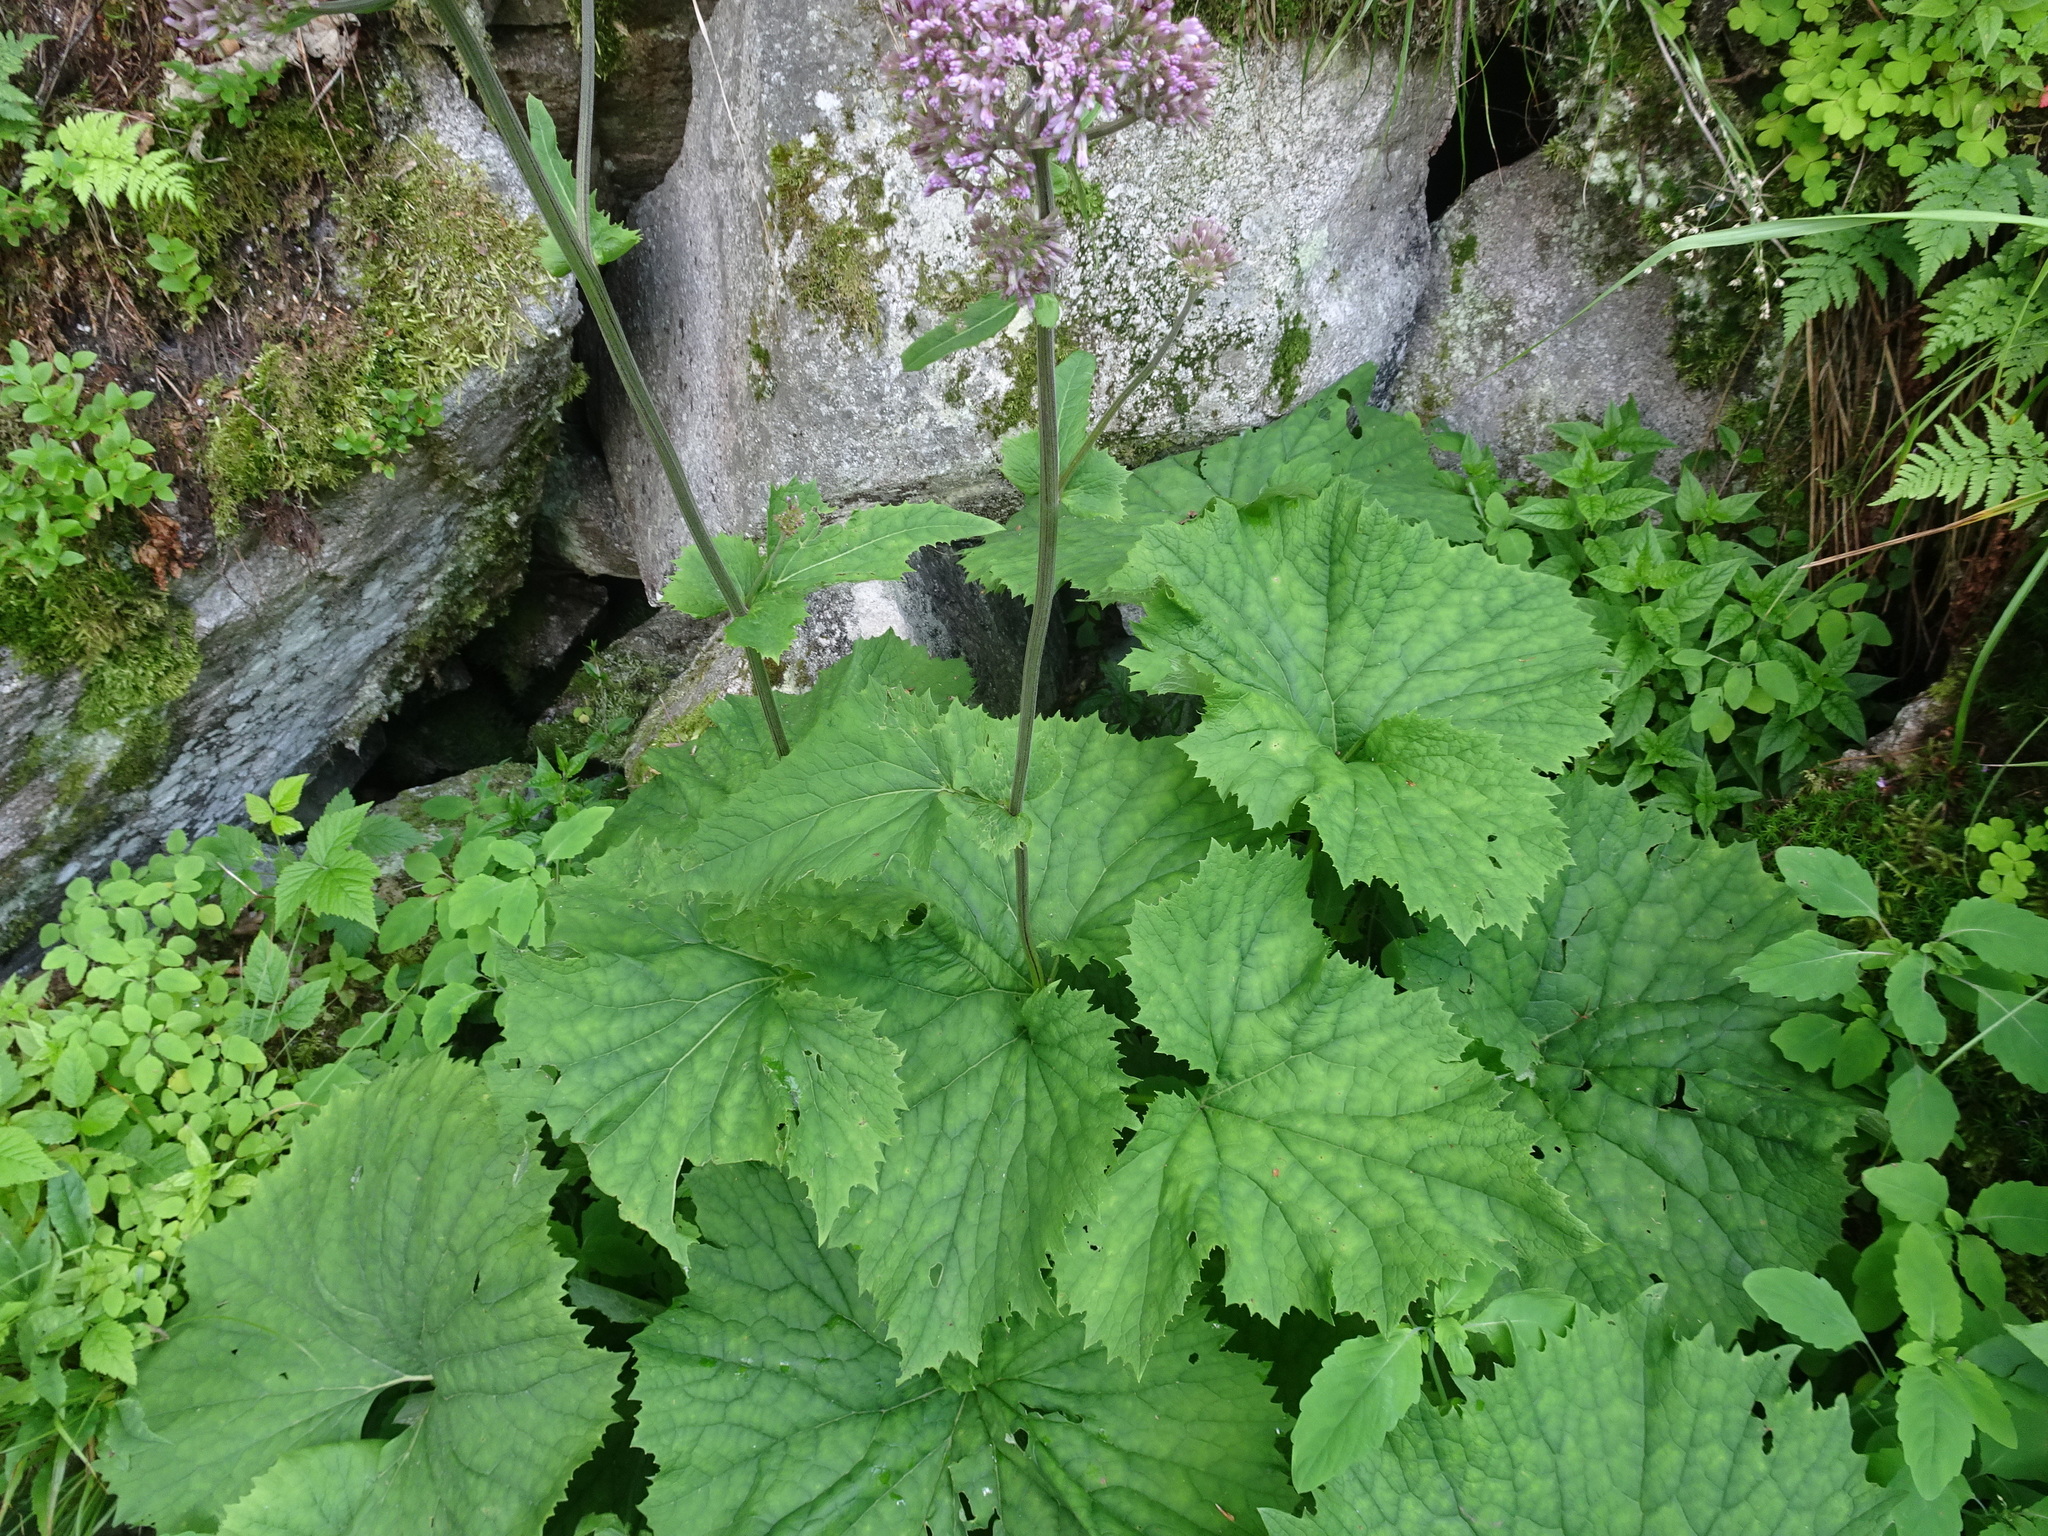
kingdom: Plantae
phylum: Tracheophyta
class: Magnoliopsida
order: Asterales
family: Asteraceae
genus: Adenostyles
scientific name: Adenostyles alliariae
